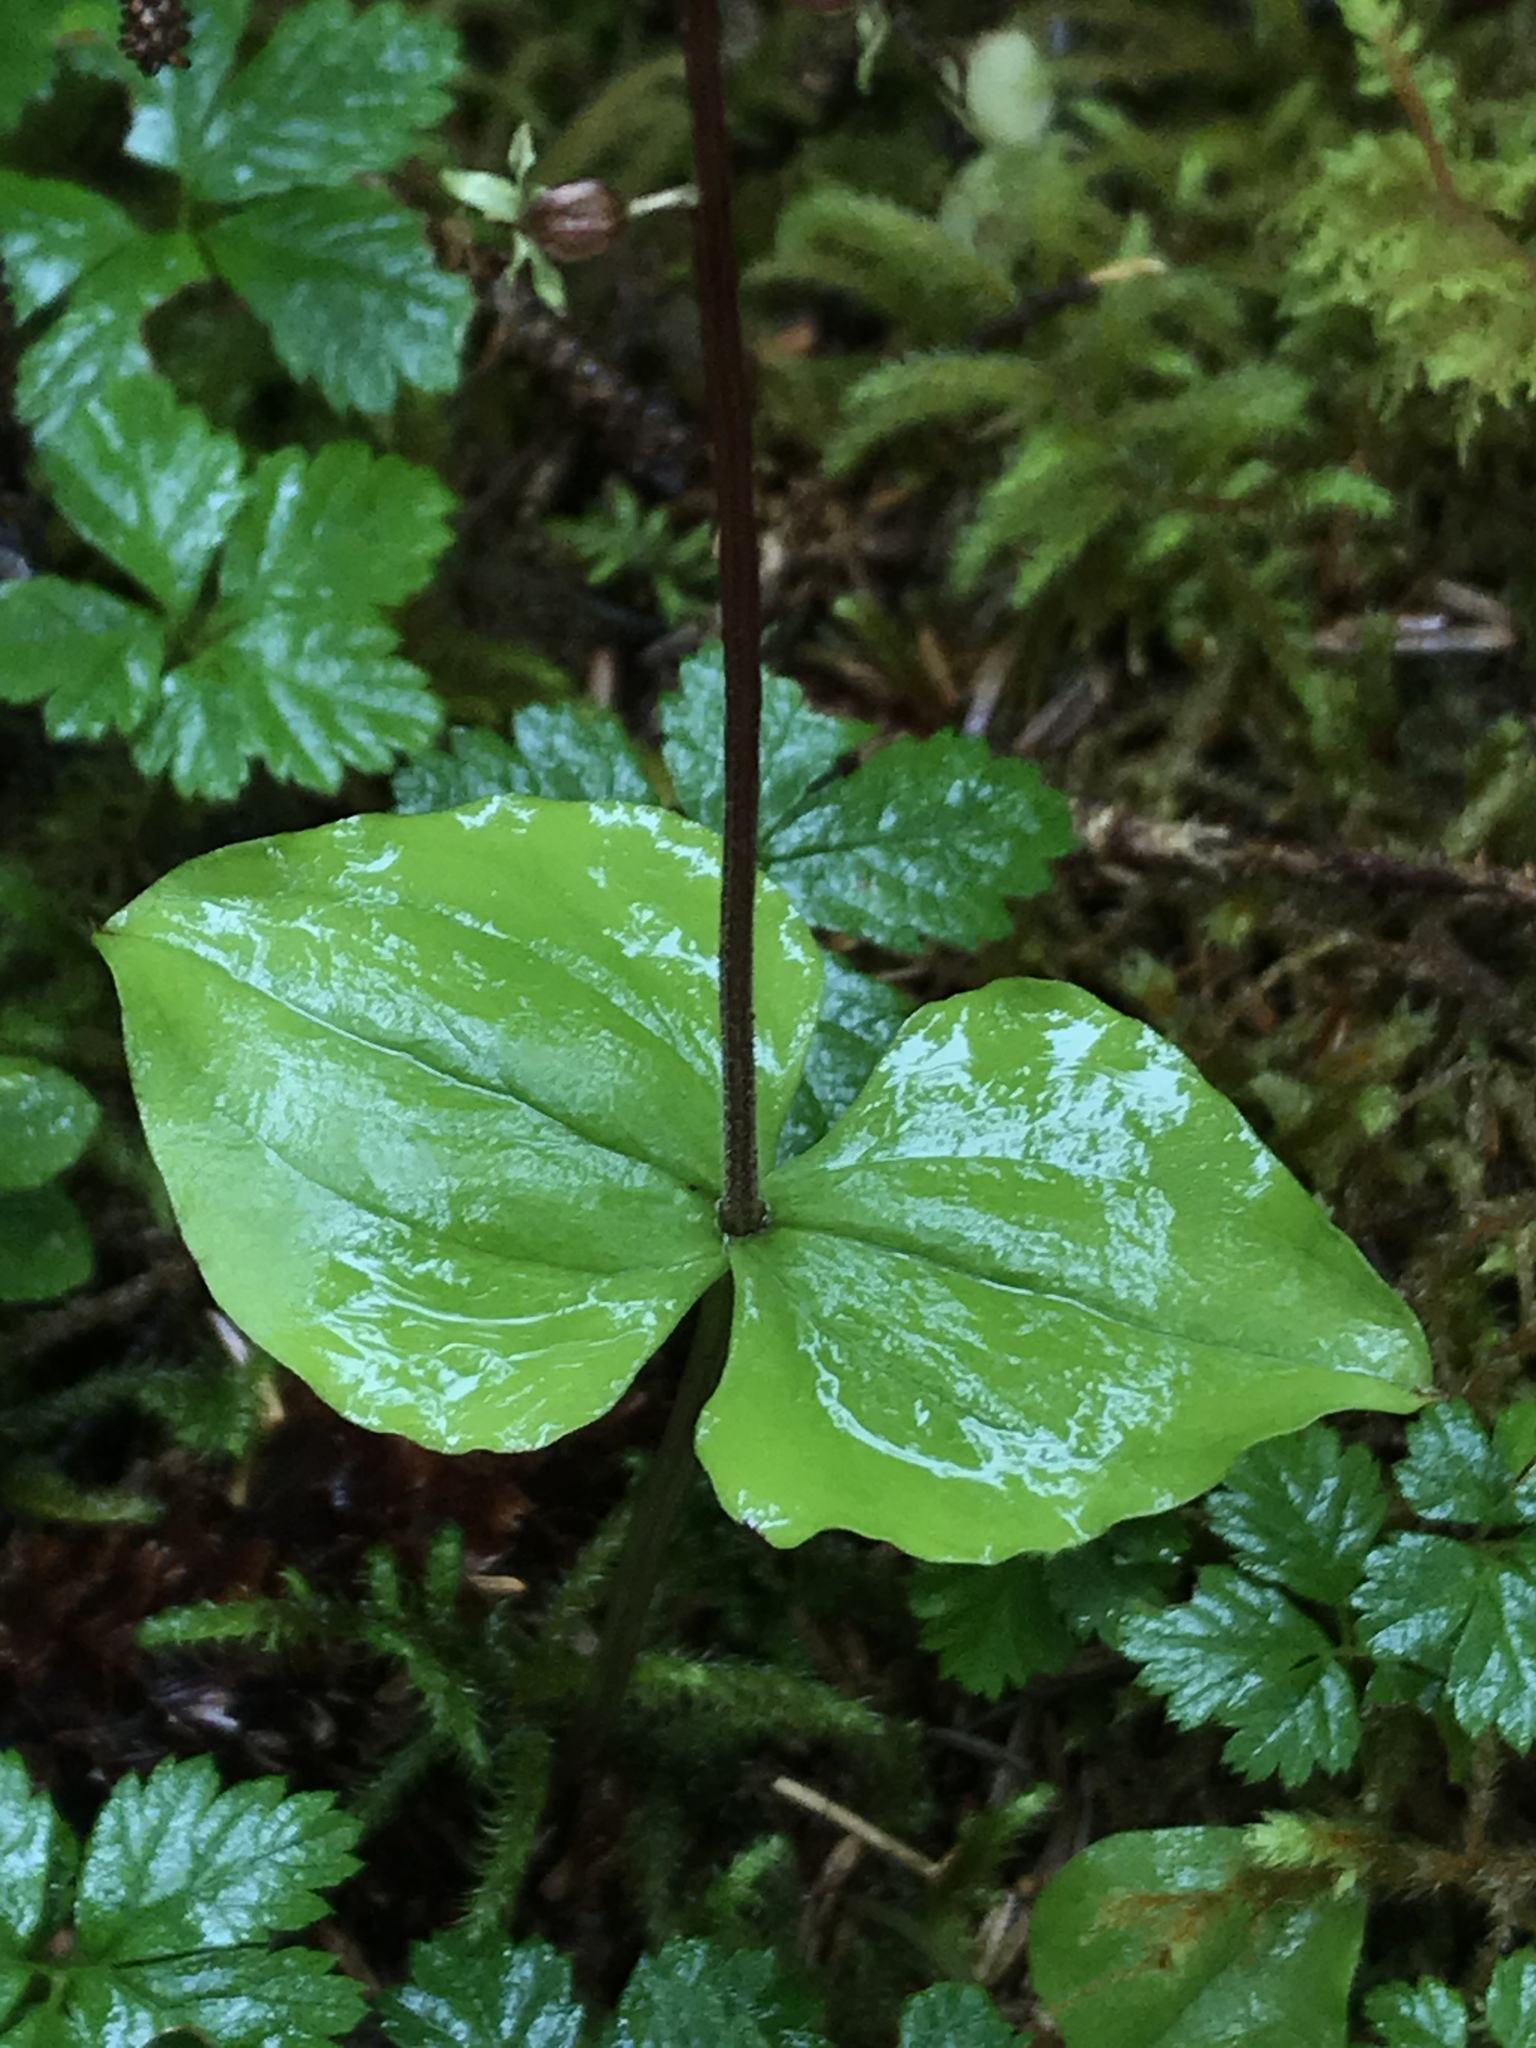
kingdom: Plantae
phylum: Tracheophyta
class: Liliopsida
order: Asparagales
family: Orchidaceae
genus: Neottia
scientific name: Neottia cordata
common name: Lesser twayblade
